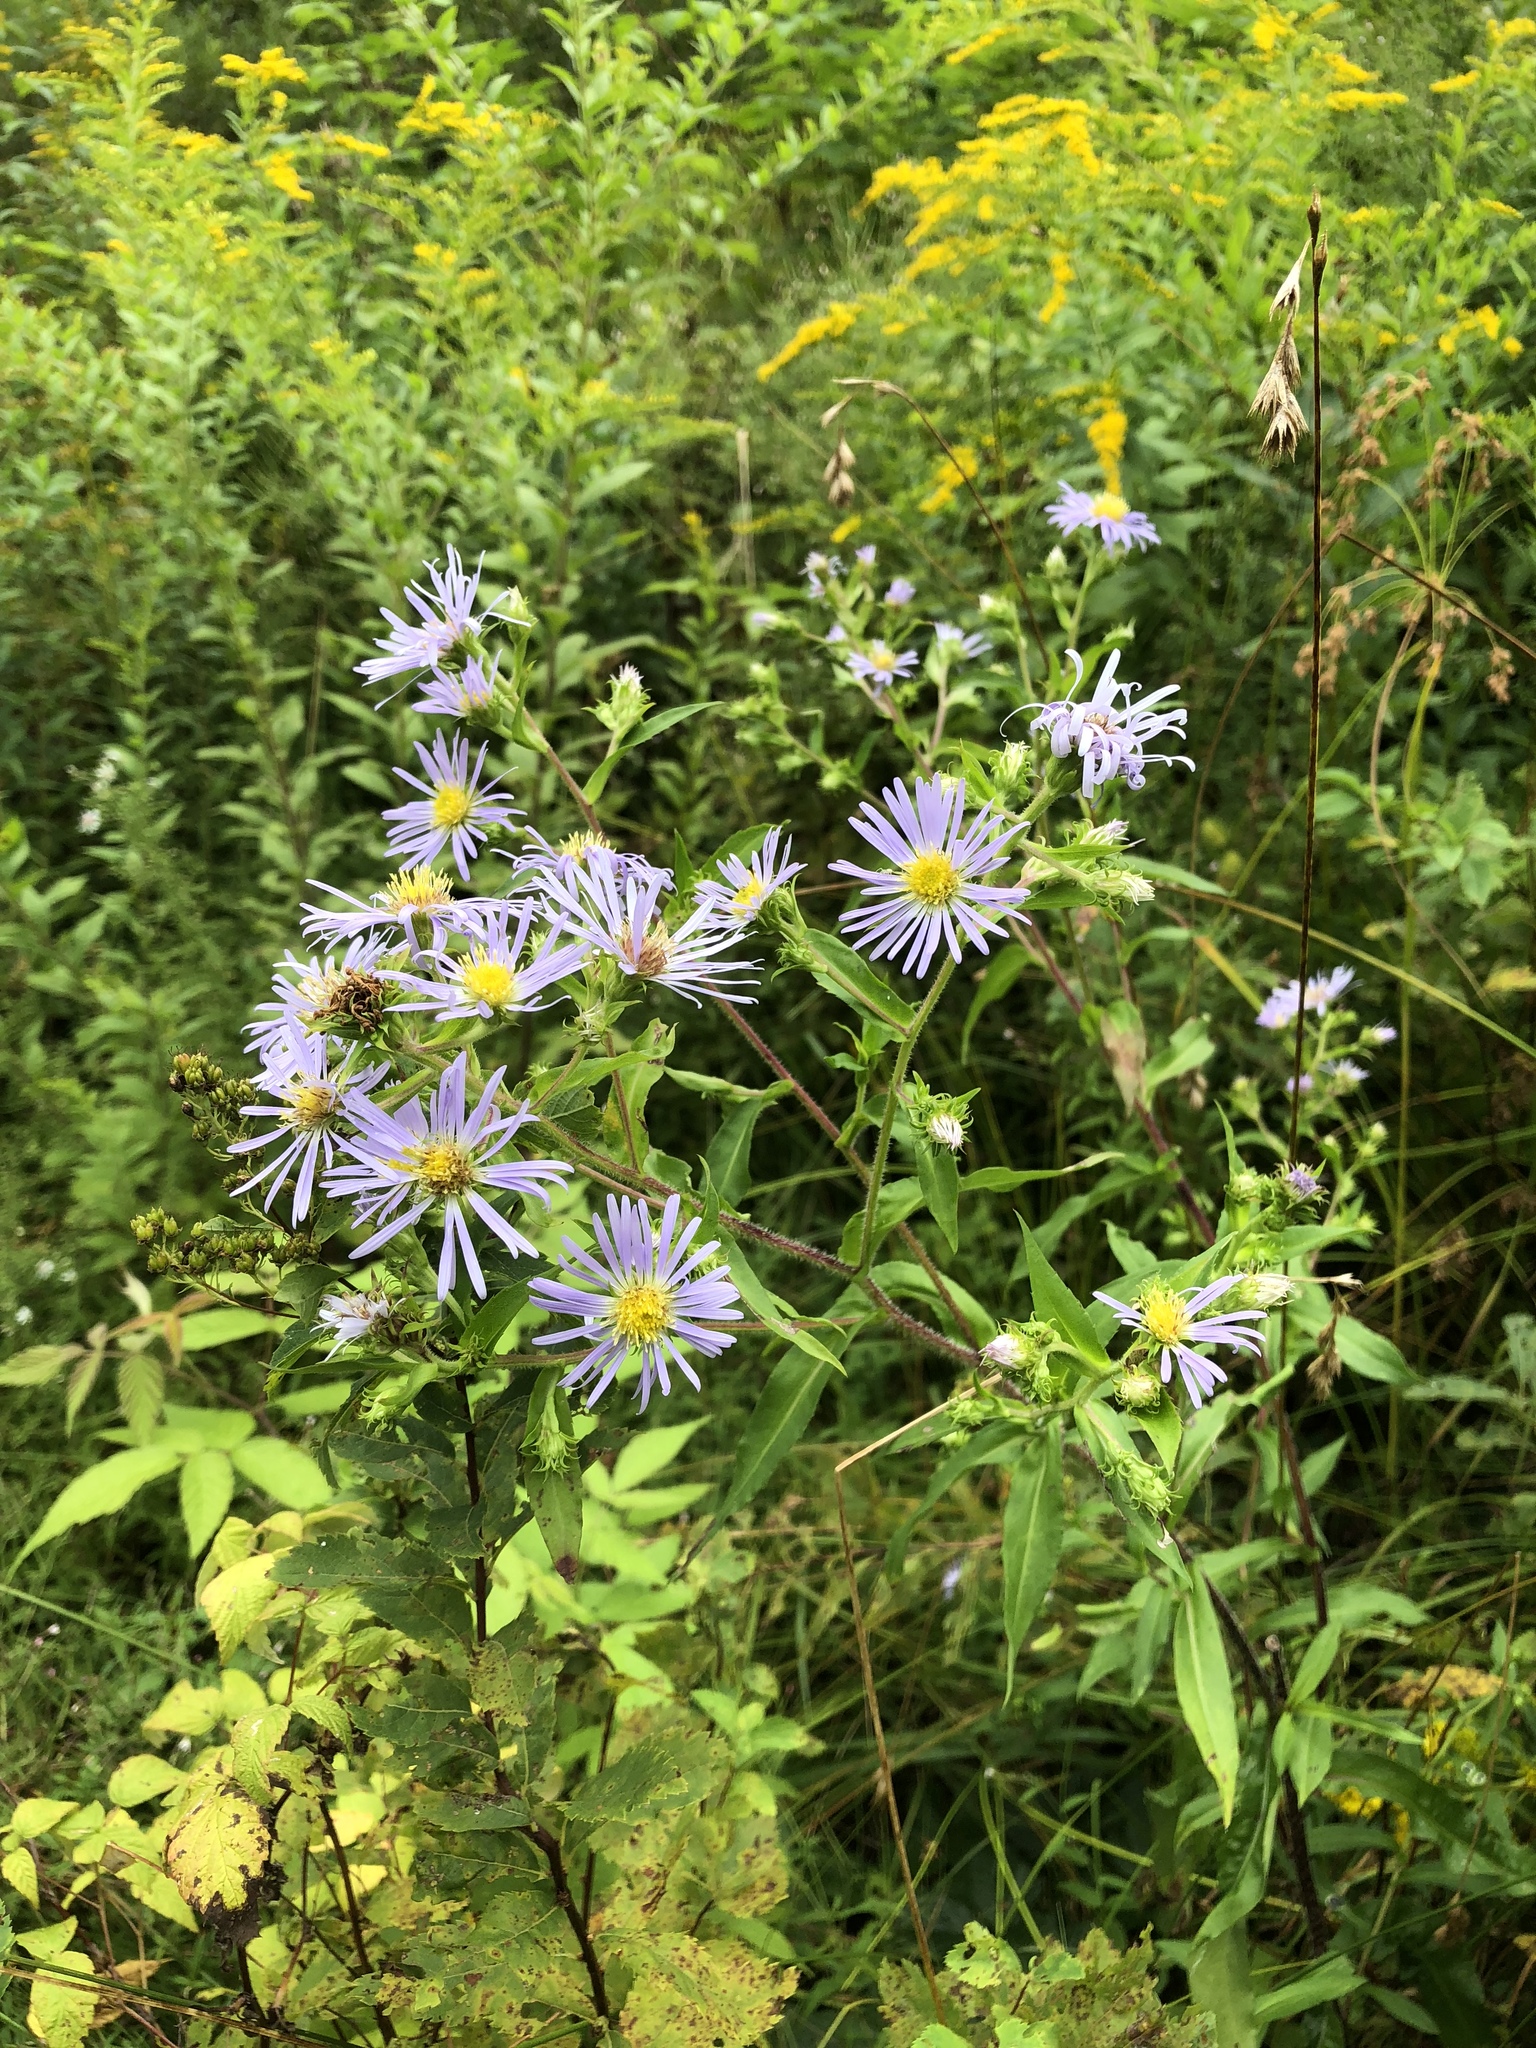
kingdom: Plantae
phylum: Tracheophyta
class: Magnoliopsida
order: Asterales
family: Asteraceae
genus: Symphyotrichum
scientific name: Symphyotrichum puniceum
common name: Bog aster
